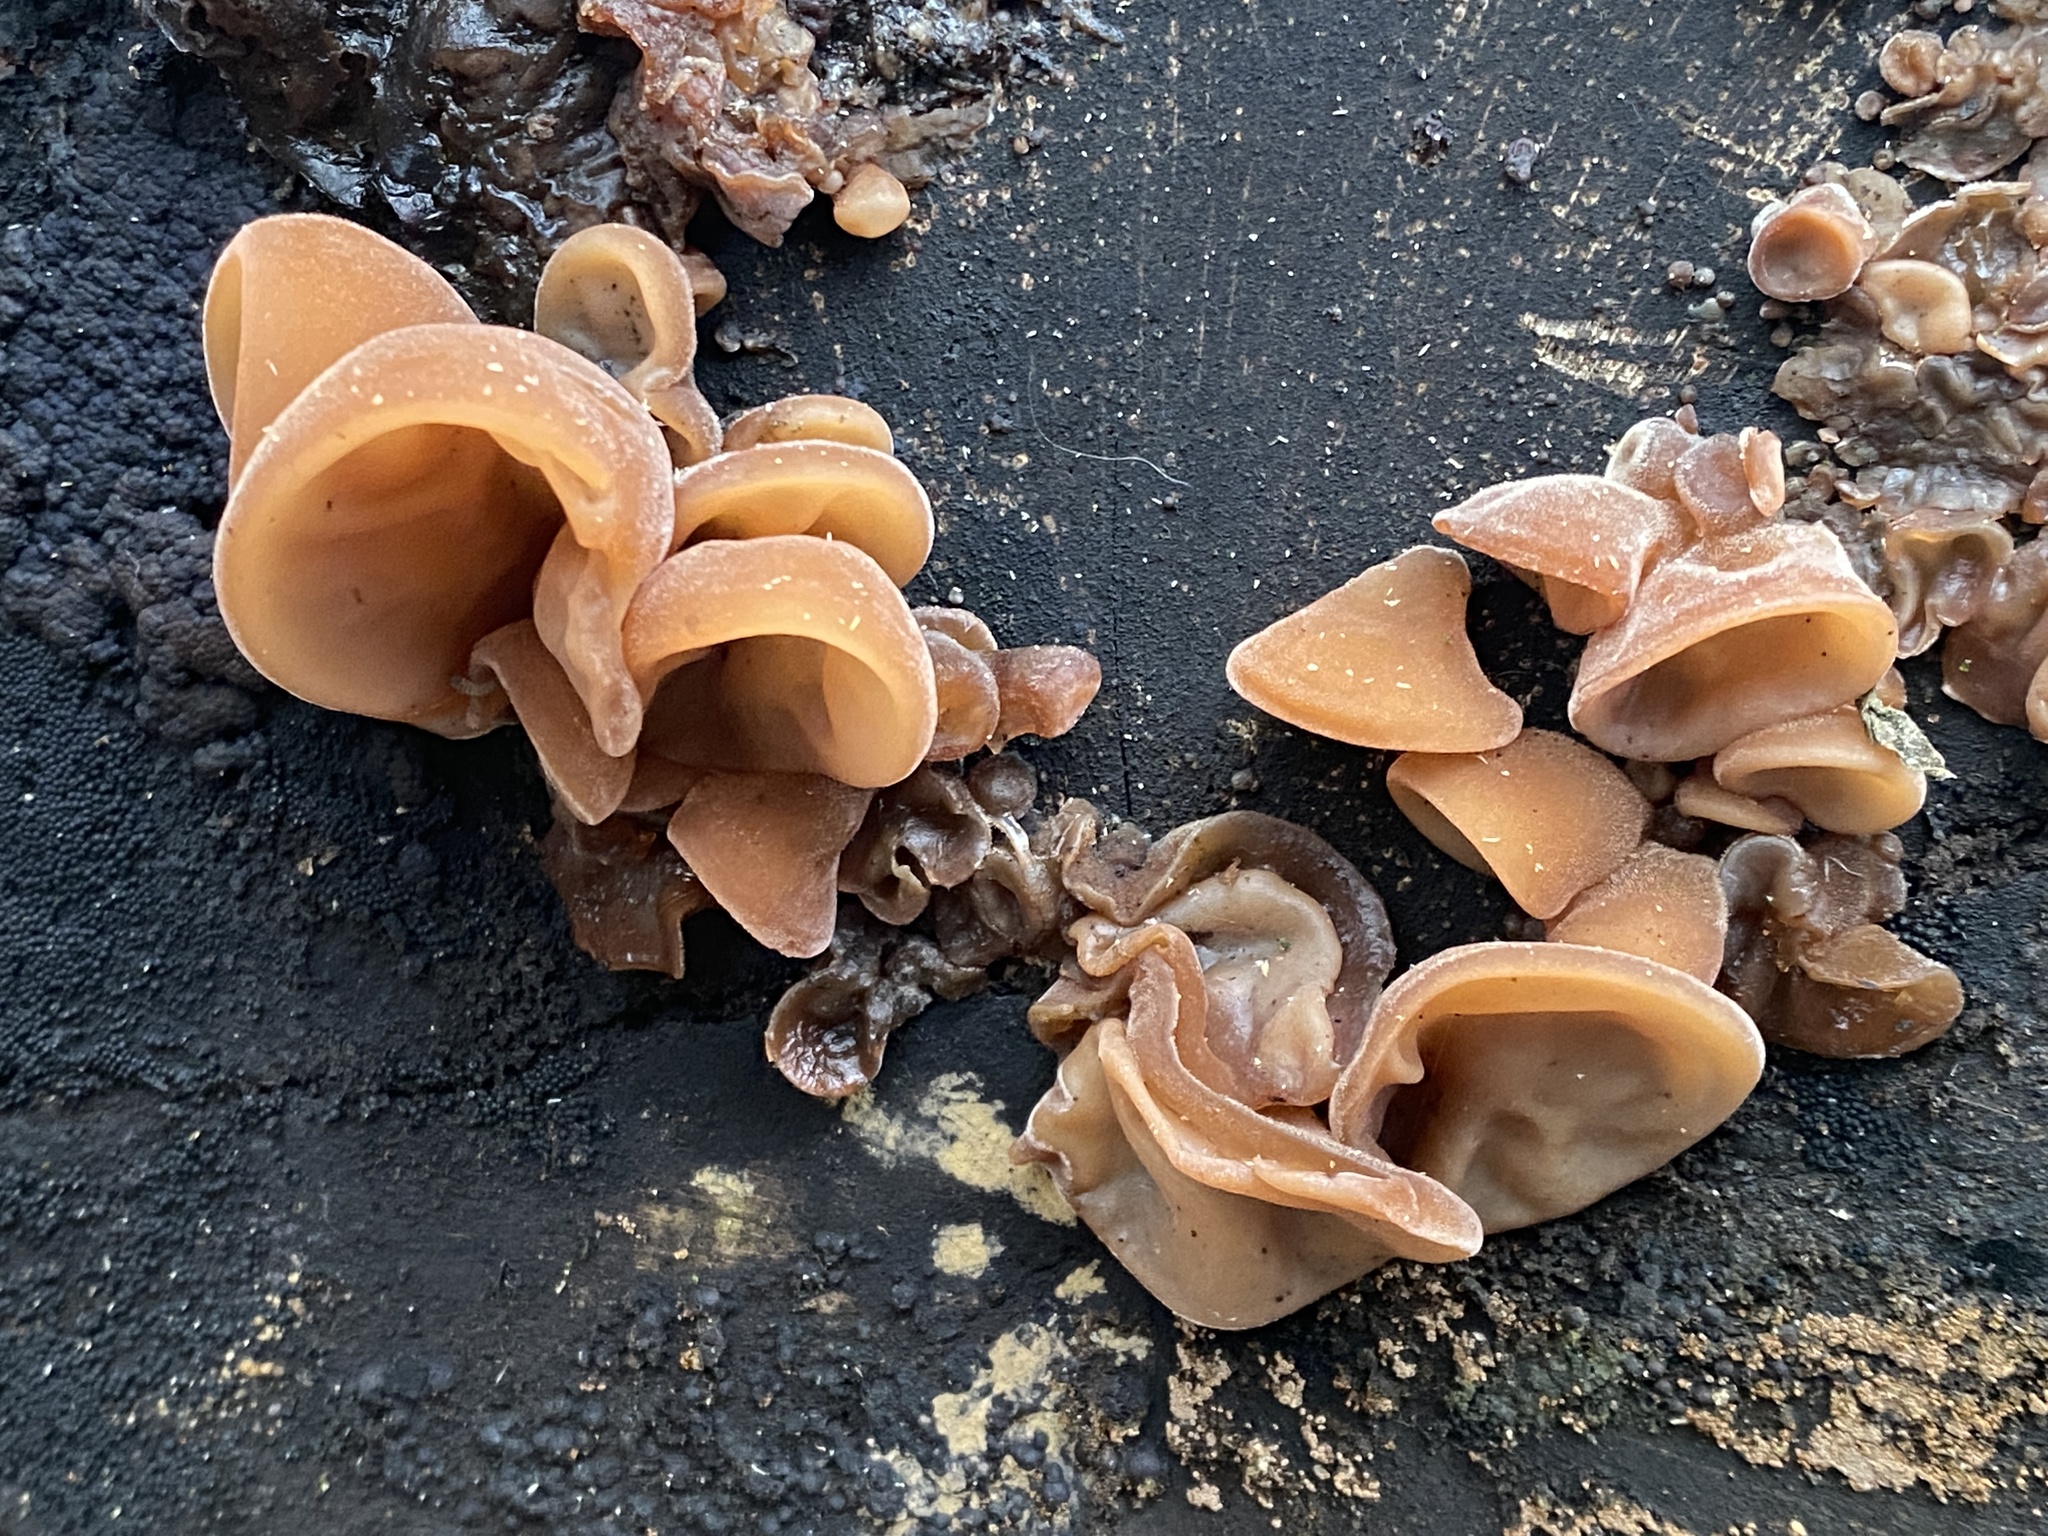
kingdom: Fungi
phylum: Basidiomycota
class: Agaricomycetes
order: Auriculariales
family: Auriculariaceae
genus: Auricularia
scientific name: Auricularia auricula-judae
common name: Jelly ear
